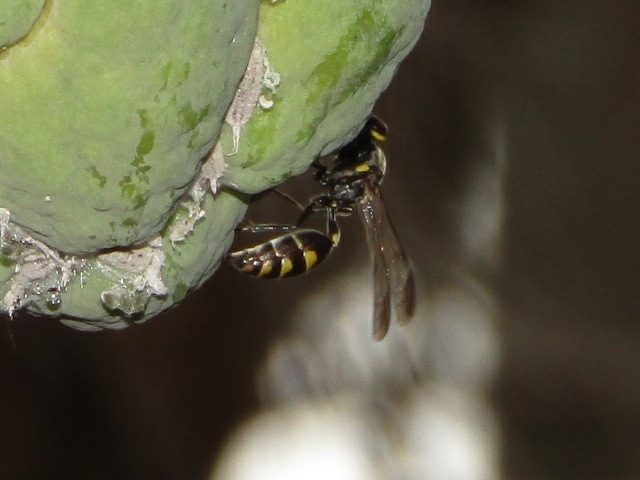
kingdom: Animalia
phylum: Arthropoda
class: Insecta
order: Hymenoptera
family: Eumenidae
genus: Polybia
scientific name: Polybia ruficeps
